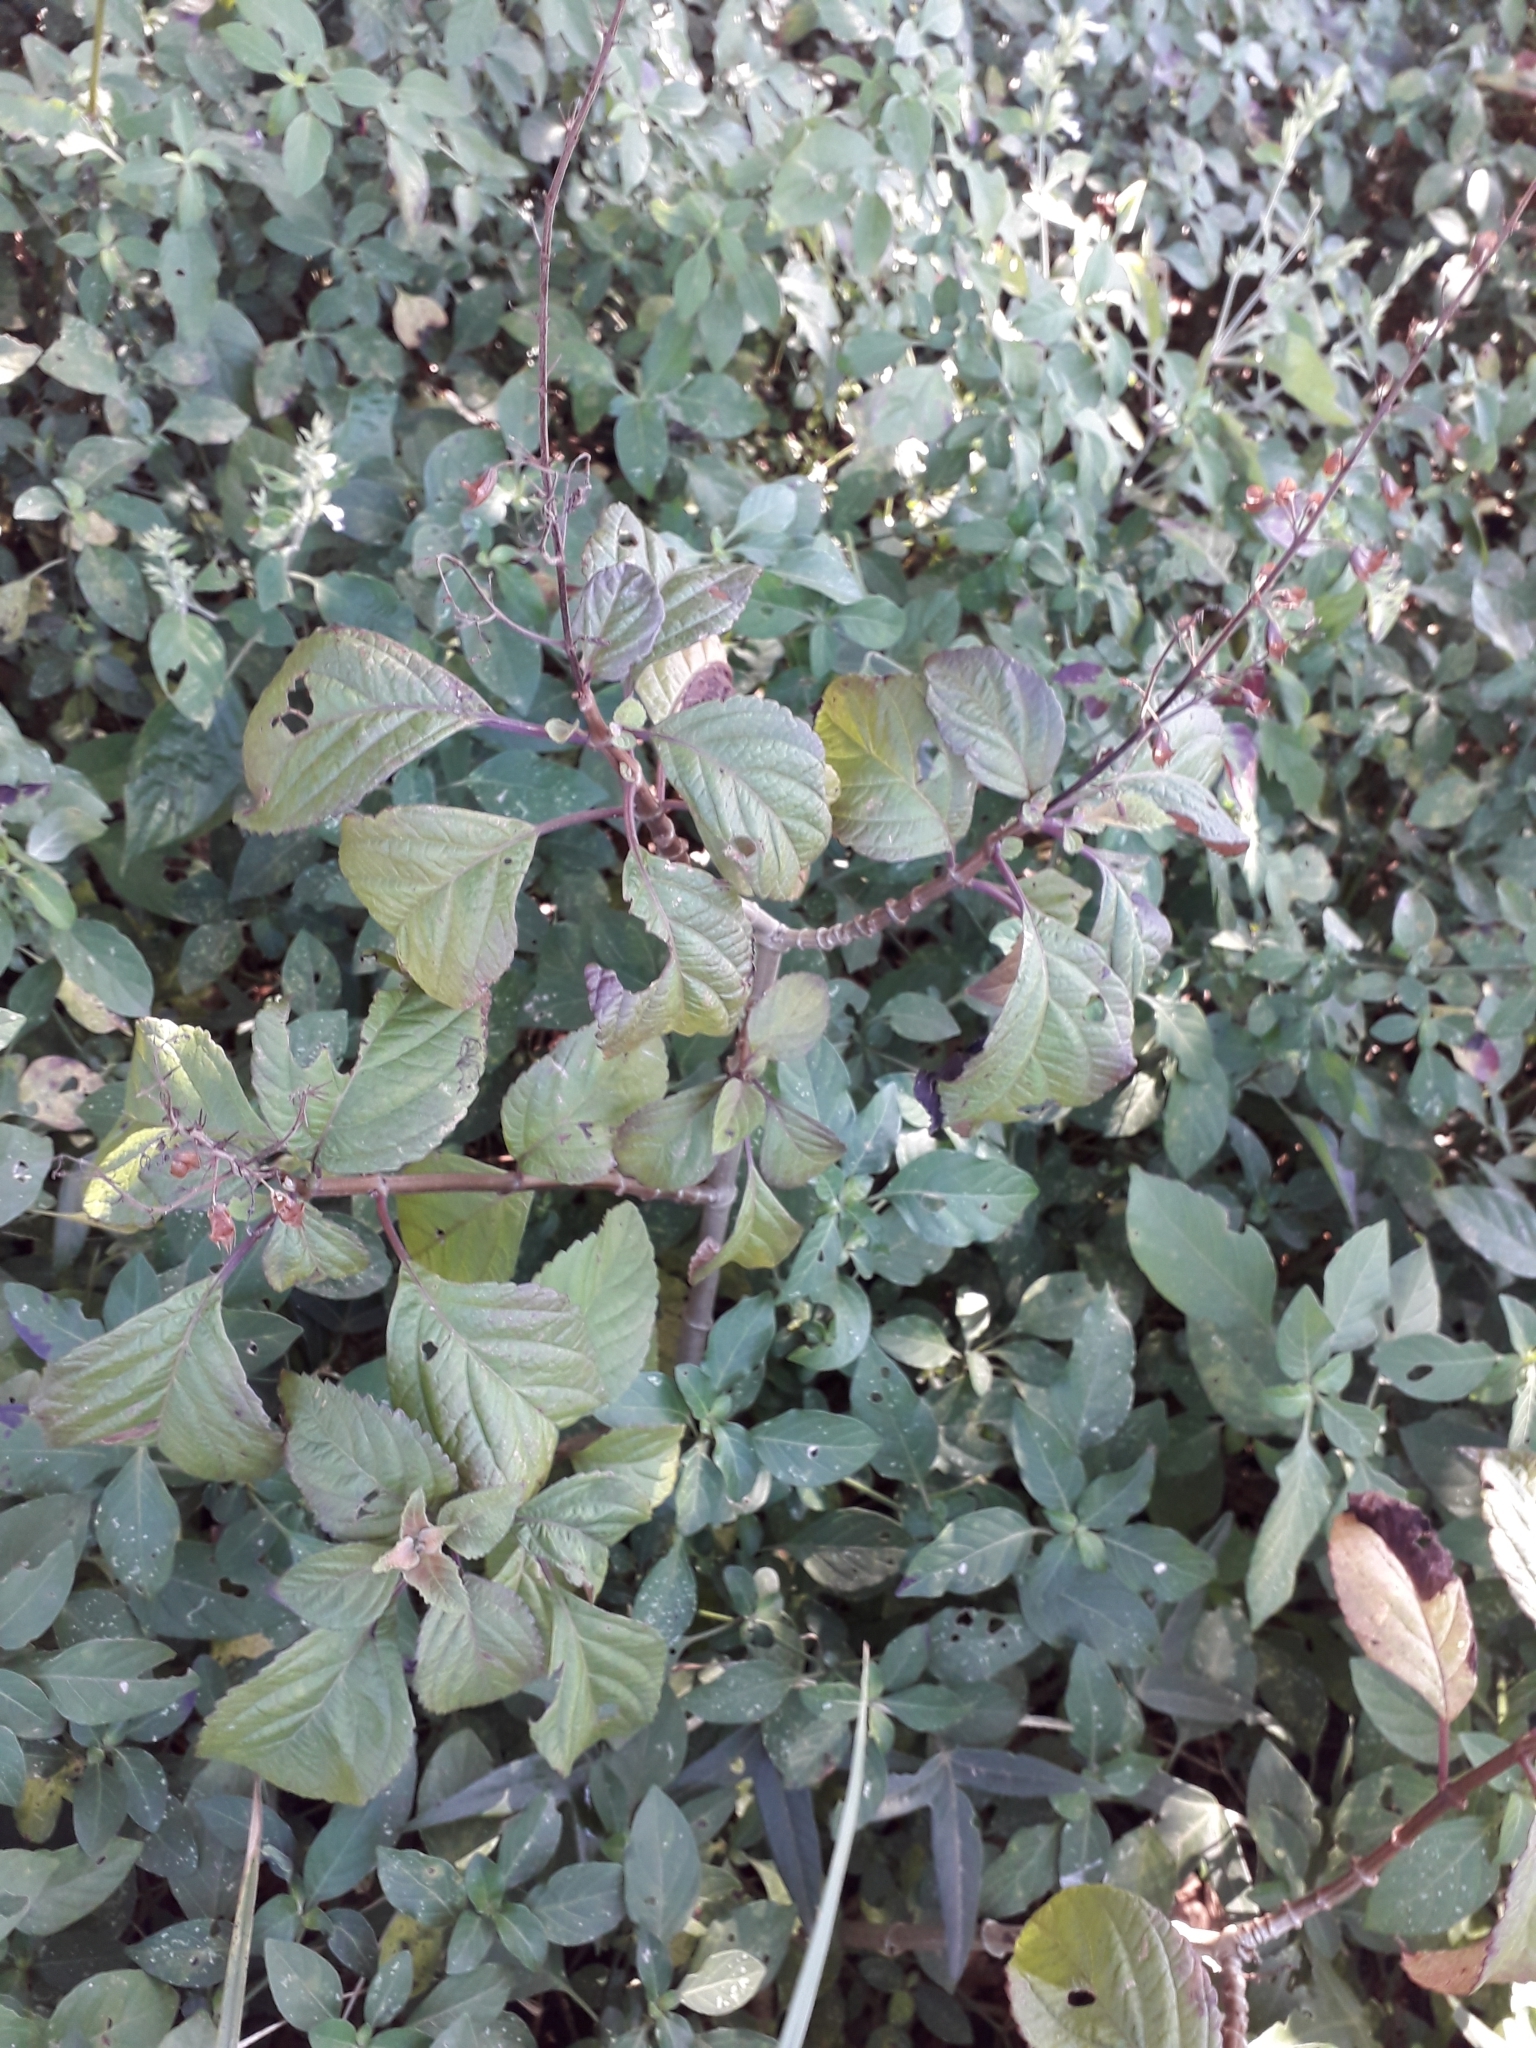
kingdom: Plantae
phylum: Tracheophyta
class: Magnoliopsida
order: Lamiales
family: Lamiaceae
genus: Plectranthus
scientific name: Plectranthus ecklonii
